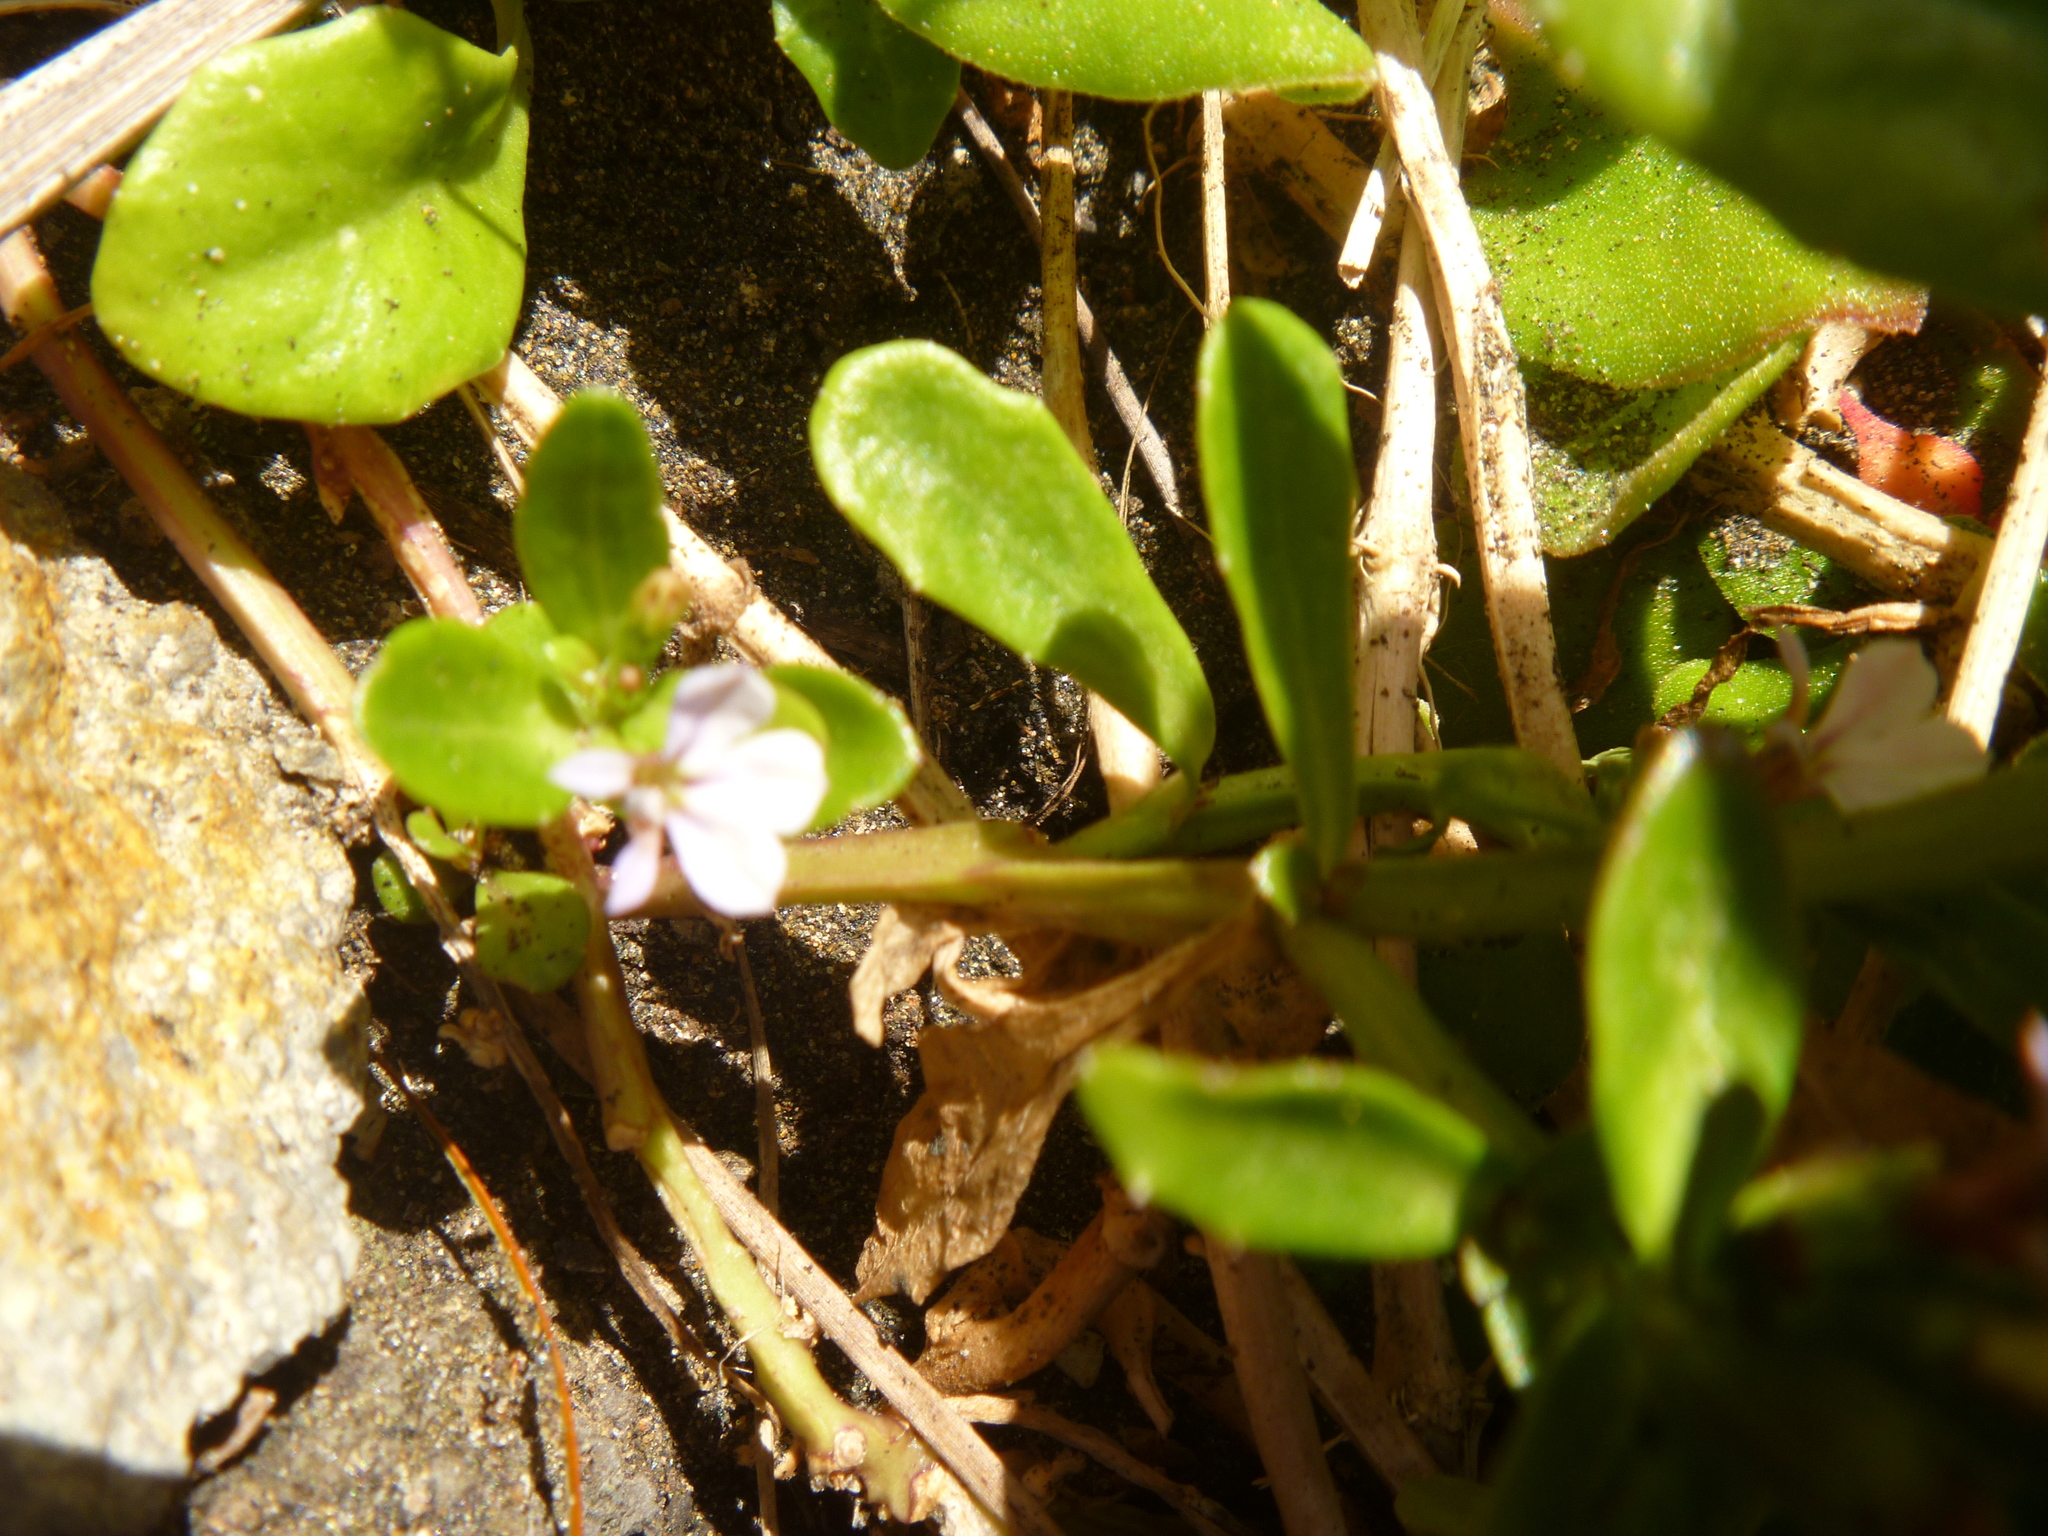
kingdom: Plantae
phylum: Tracheophyta
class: Magnoliopsida
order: Asterales
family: Campanulaceae
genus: Lobelia
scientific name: Lobelia anceps
